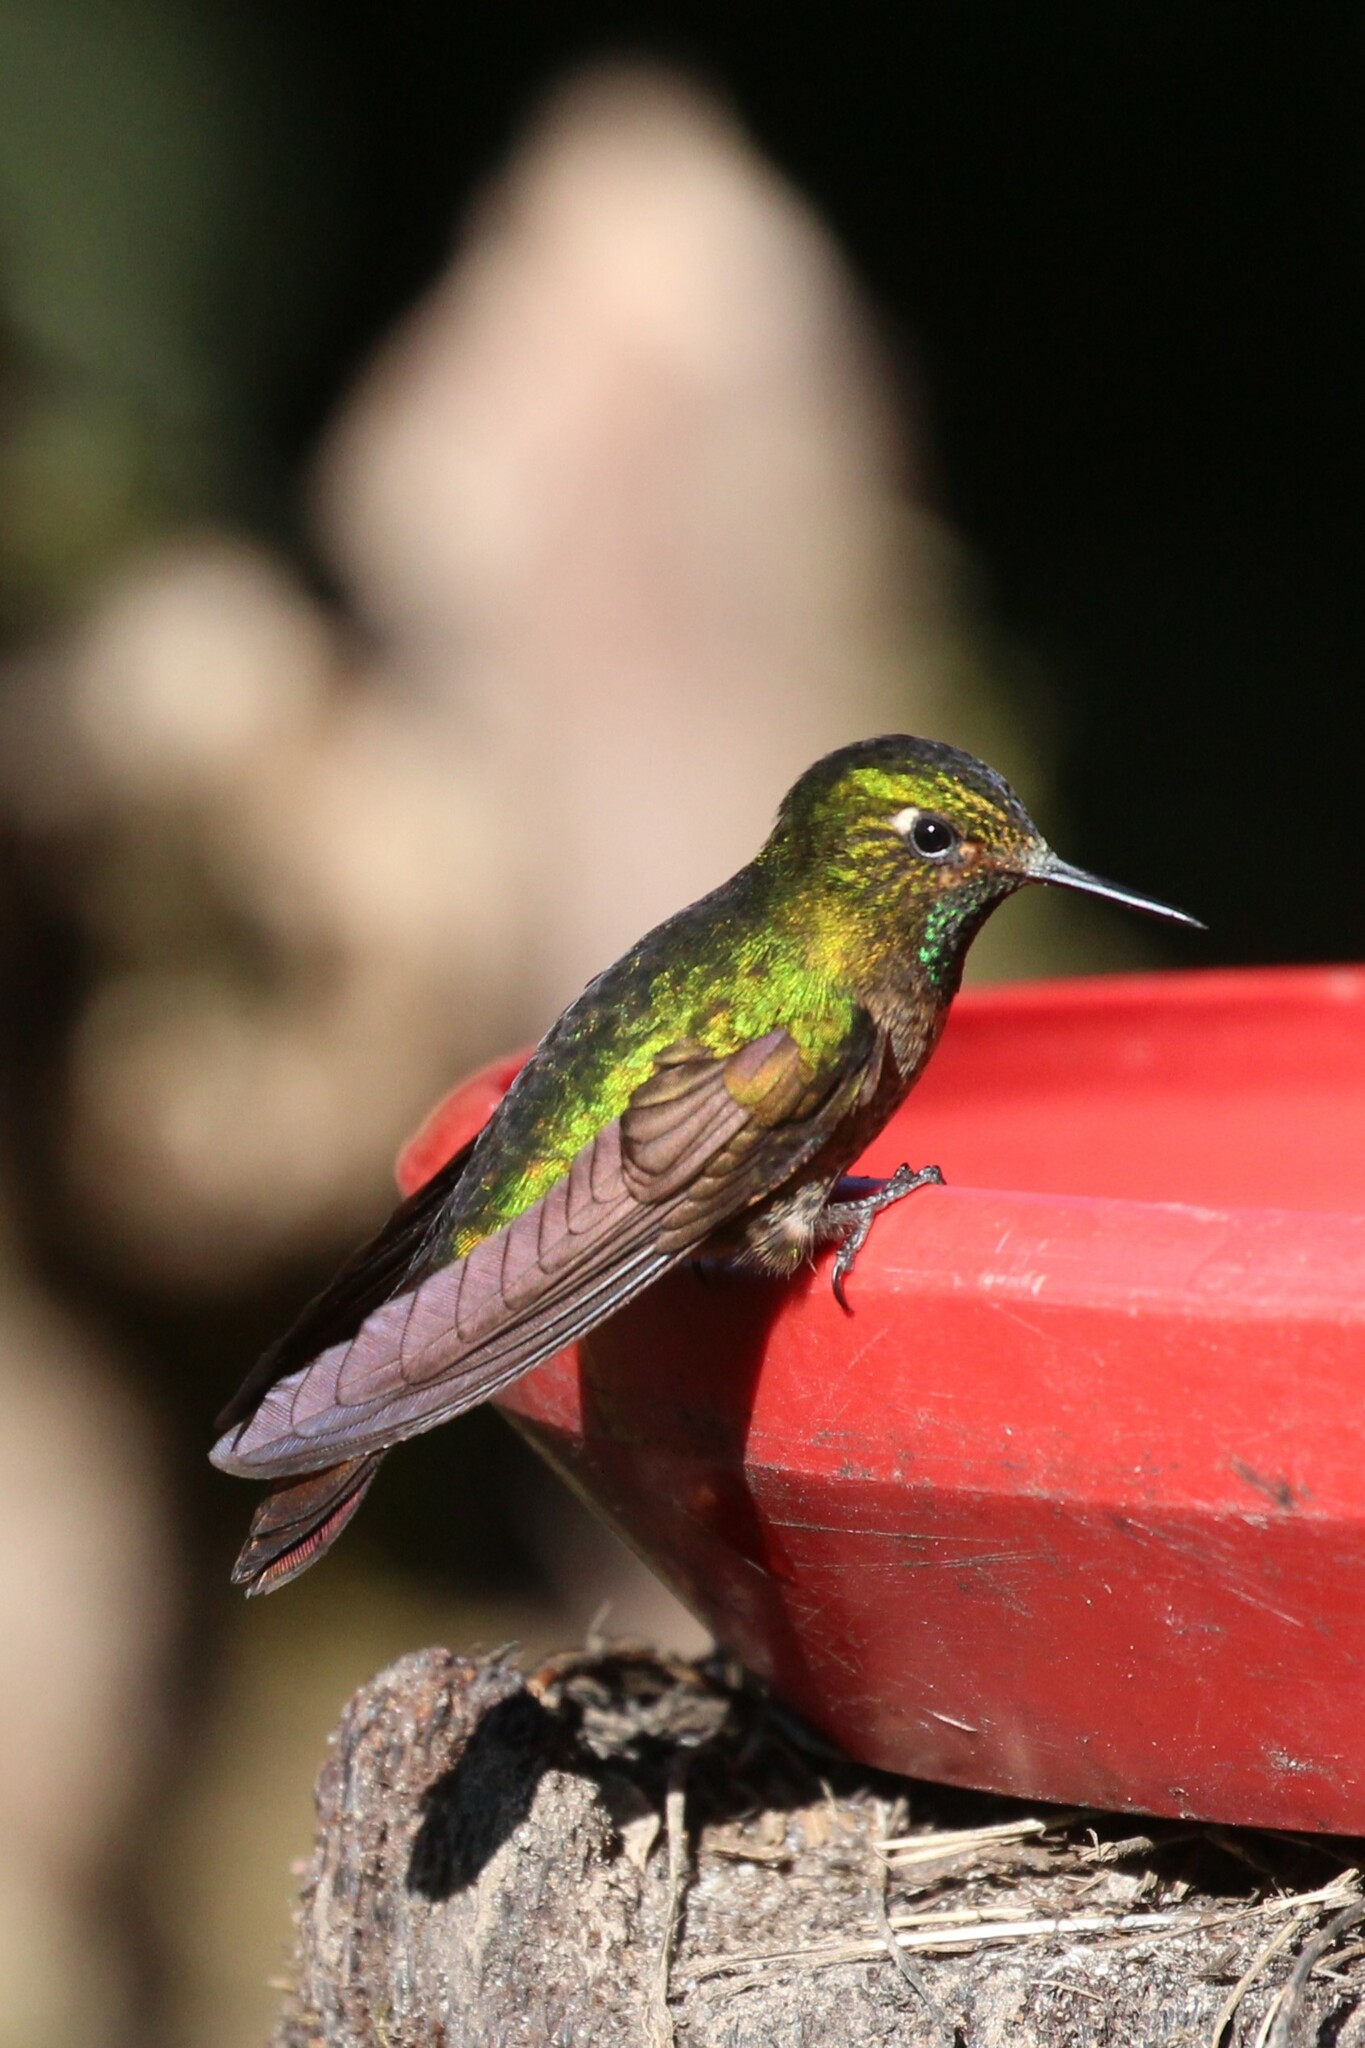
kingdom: Animalia
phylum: Chordata
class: Aves
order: Apodiformes
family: Trochilidae
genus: Metallura
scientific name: Metallura tyrianthina
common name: Tyrian metaltail
